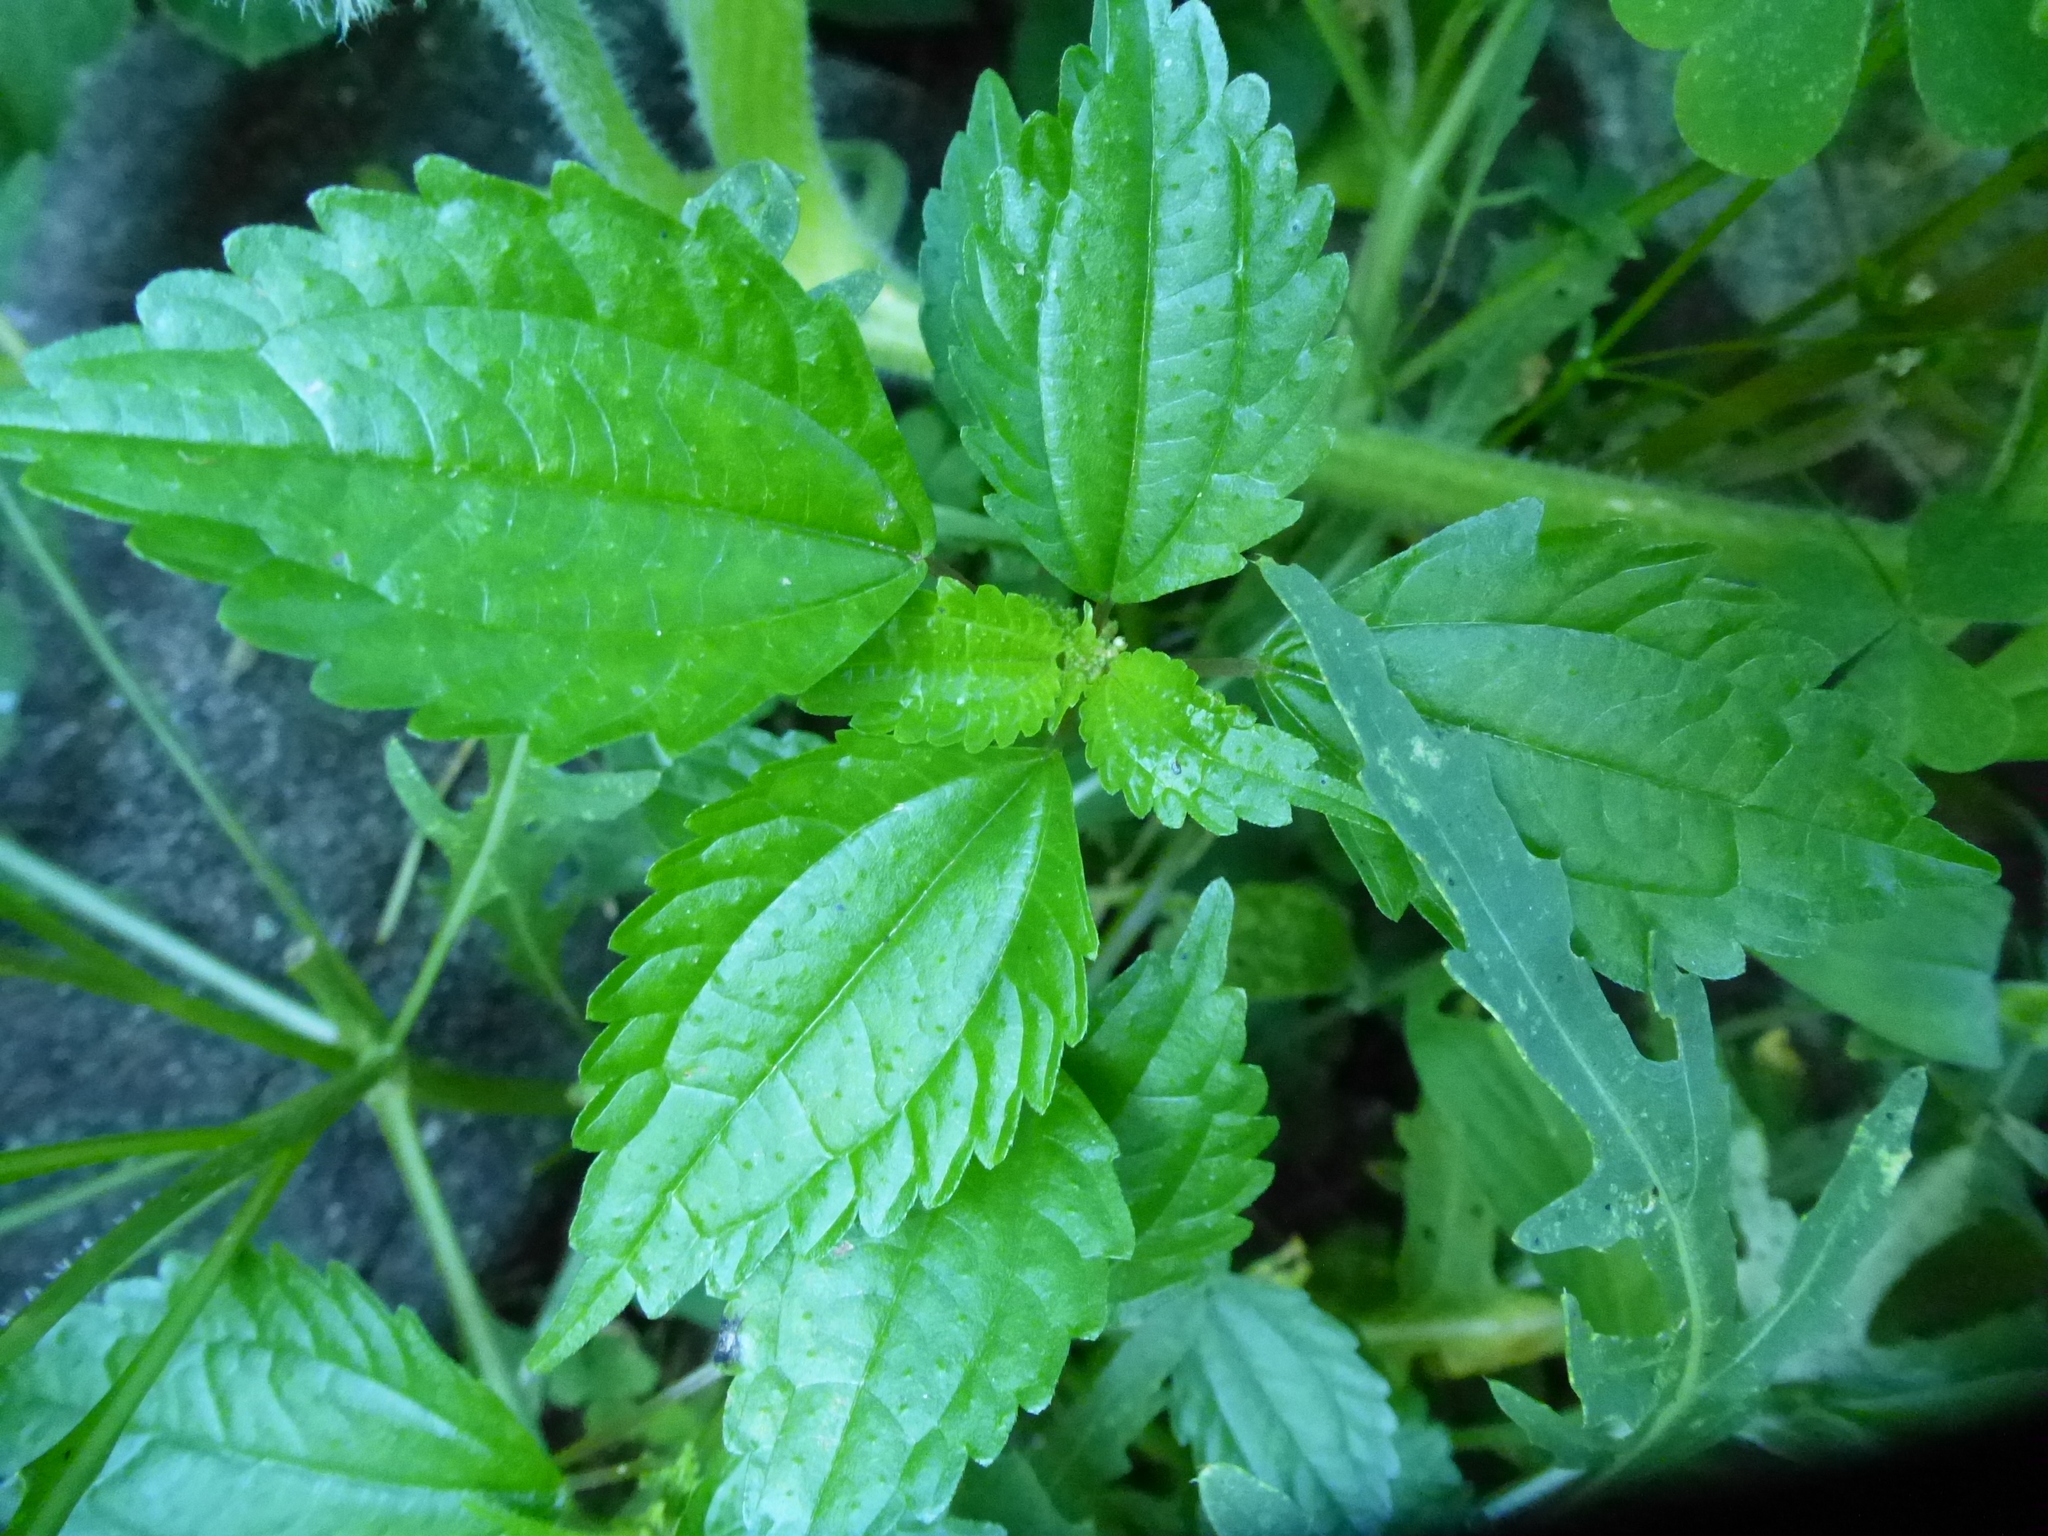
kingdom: Plantae
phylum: Tracheophyta
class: Magnoliopsida
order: Rosales
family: Urticaceae
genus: Pilea
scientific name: Pilea pumila
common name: Clearweed
